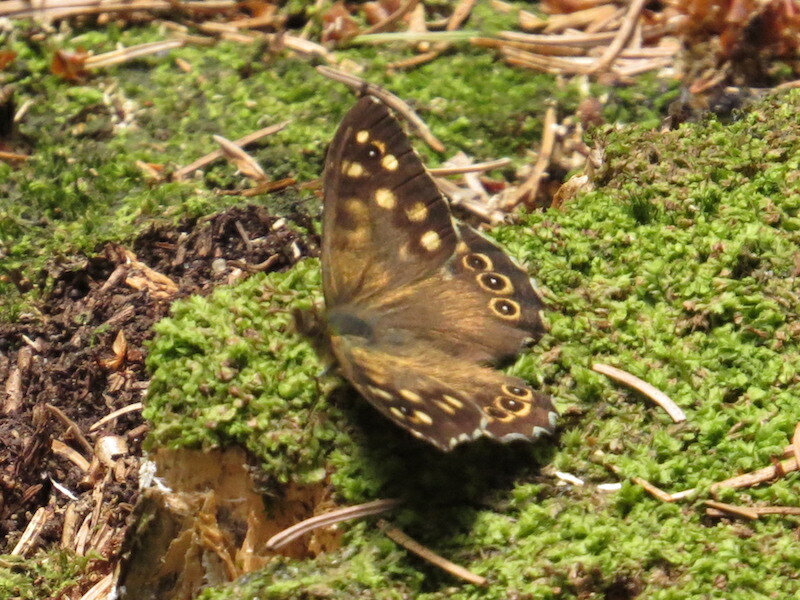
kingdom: Animalia
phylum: Arthropoda
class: Insecta
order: Lepidoptera
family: Nymphalidae
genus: Pararge
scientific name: Pararge aegeria
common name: Speckled wood
